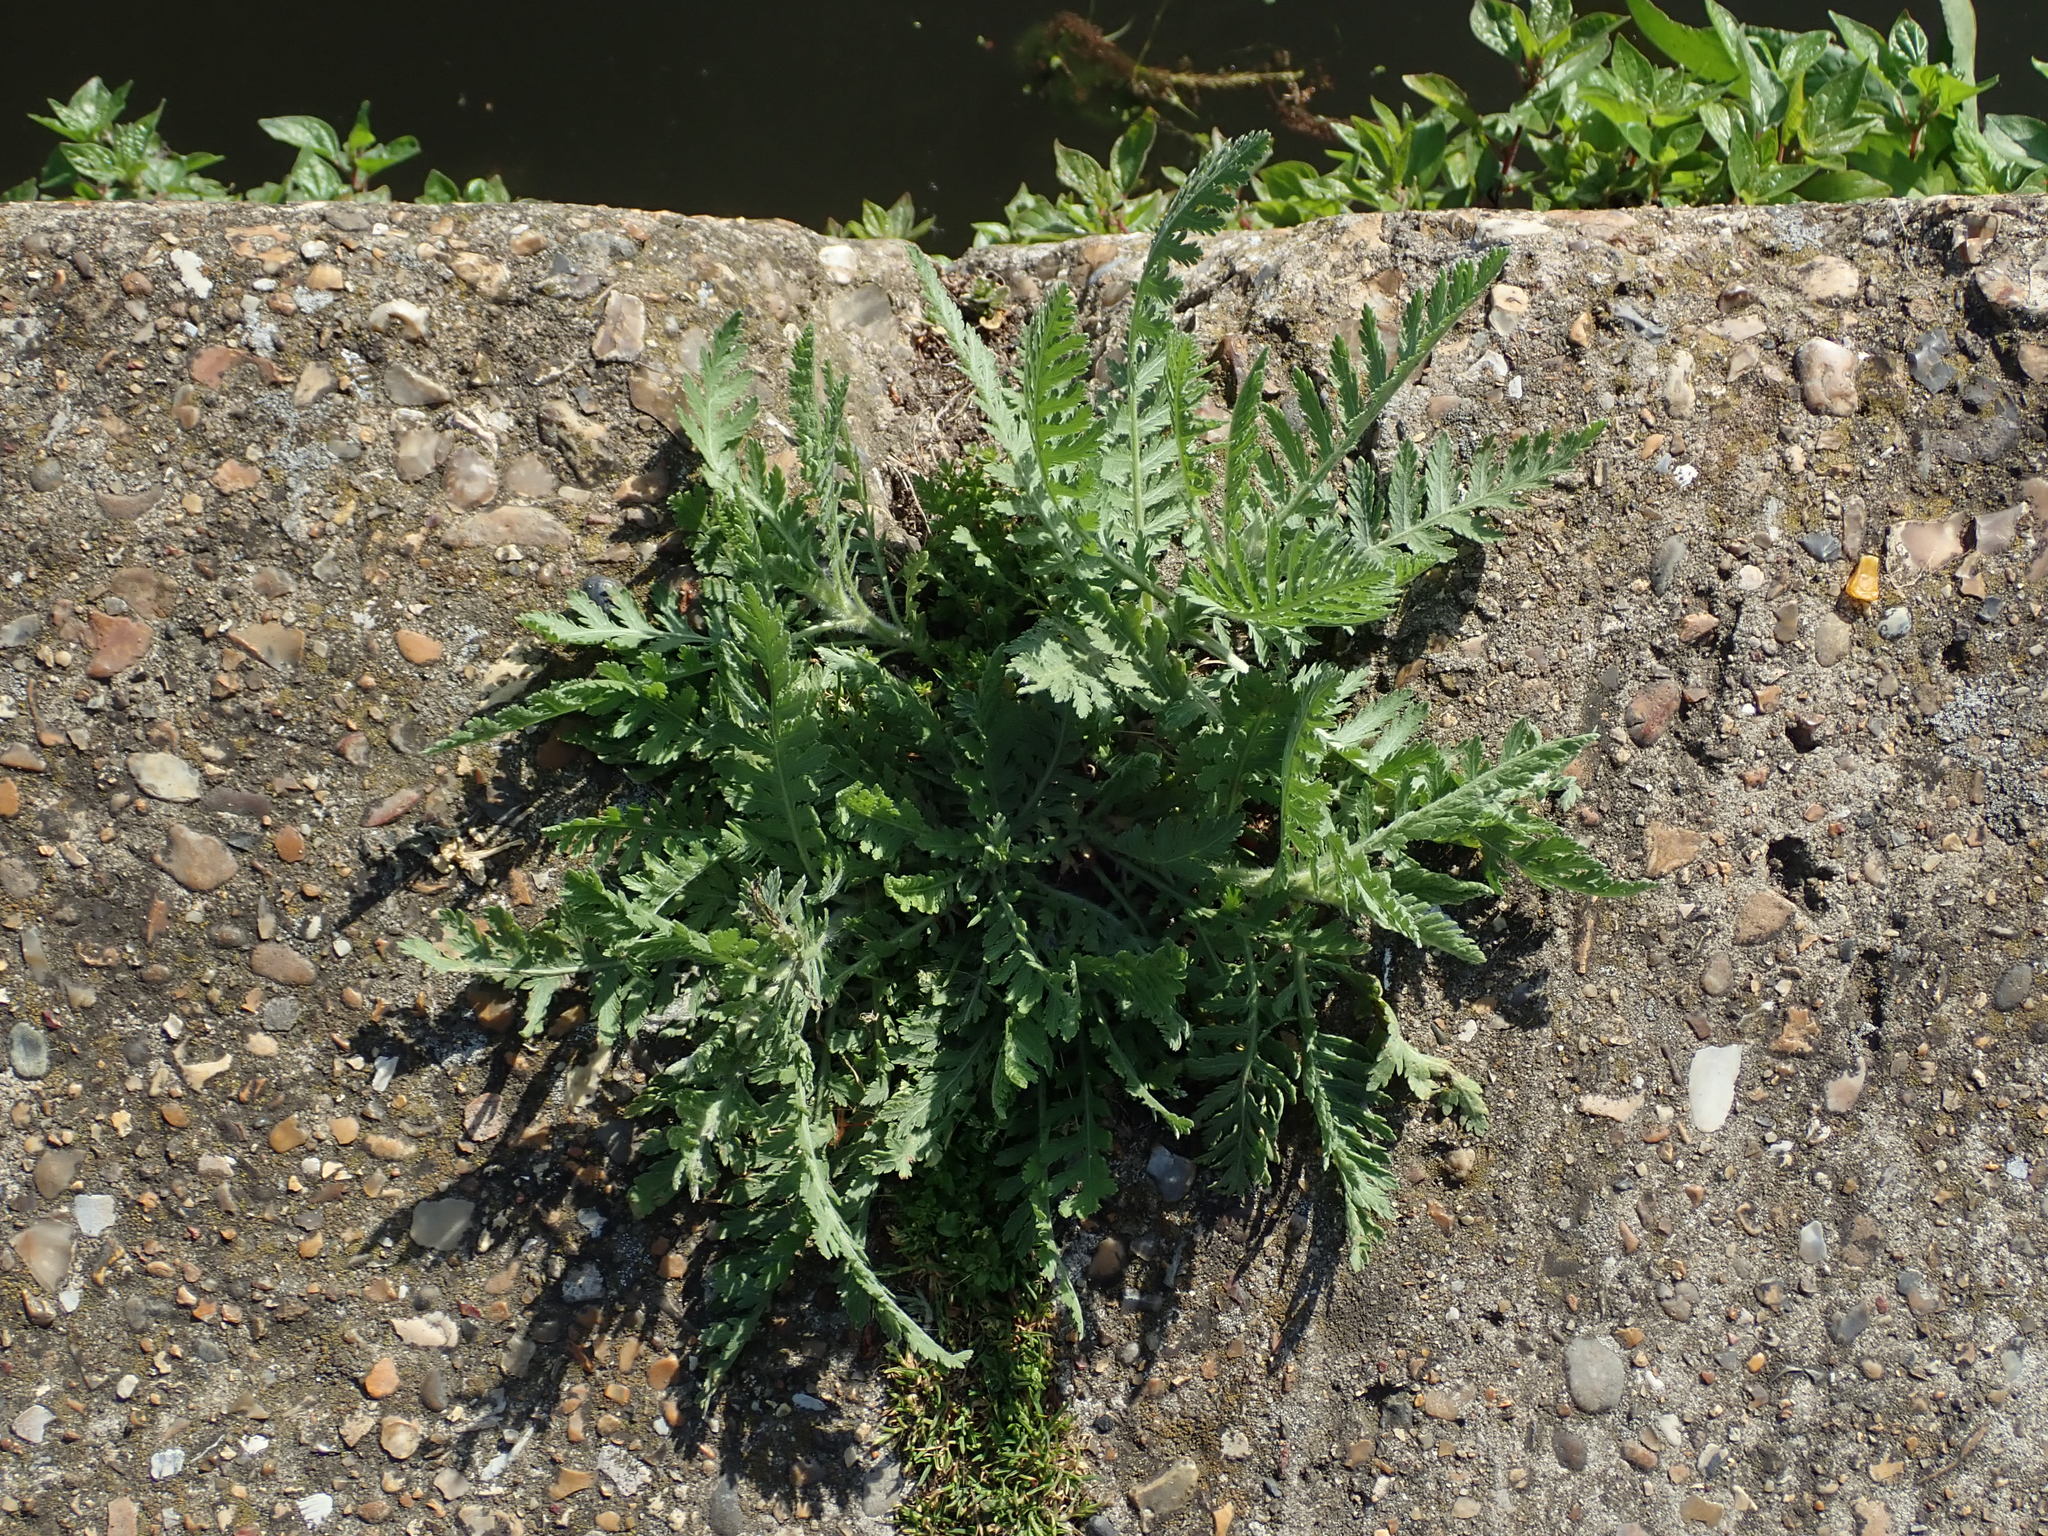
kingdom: Plantae
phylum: Tracheophyta
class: Magnoliopsida
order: Asterales
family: Asteraceae
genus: Tanacetum
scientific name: Tanacetum vulgare
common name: Common tansy
